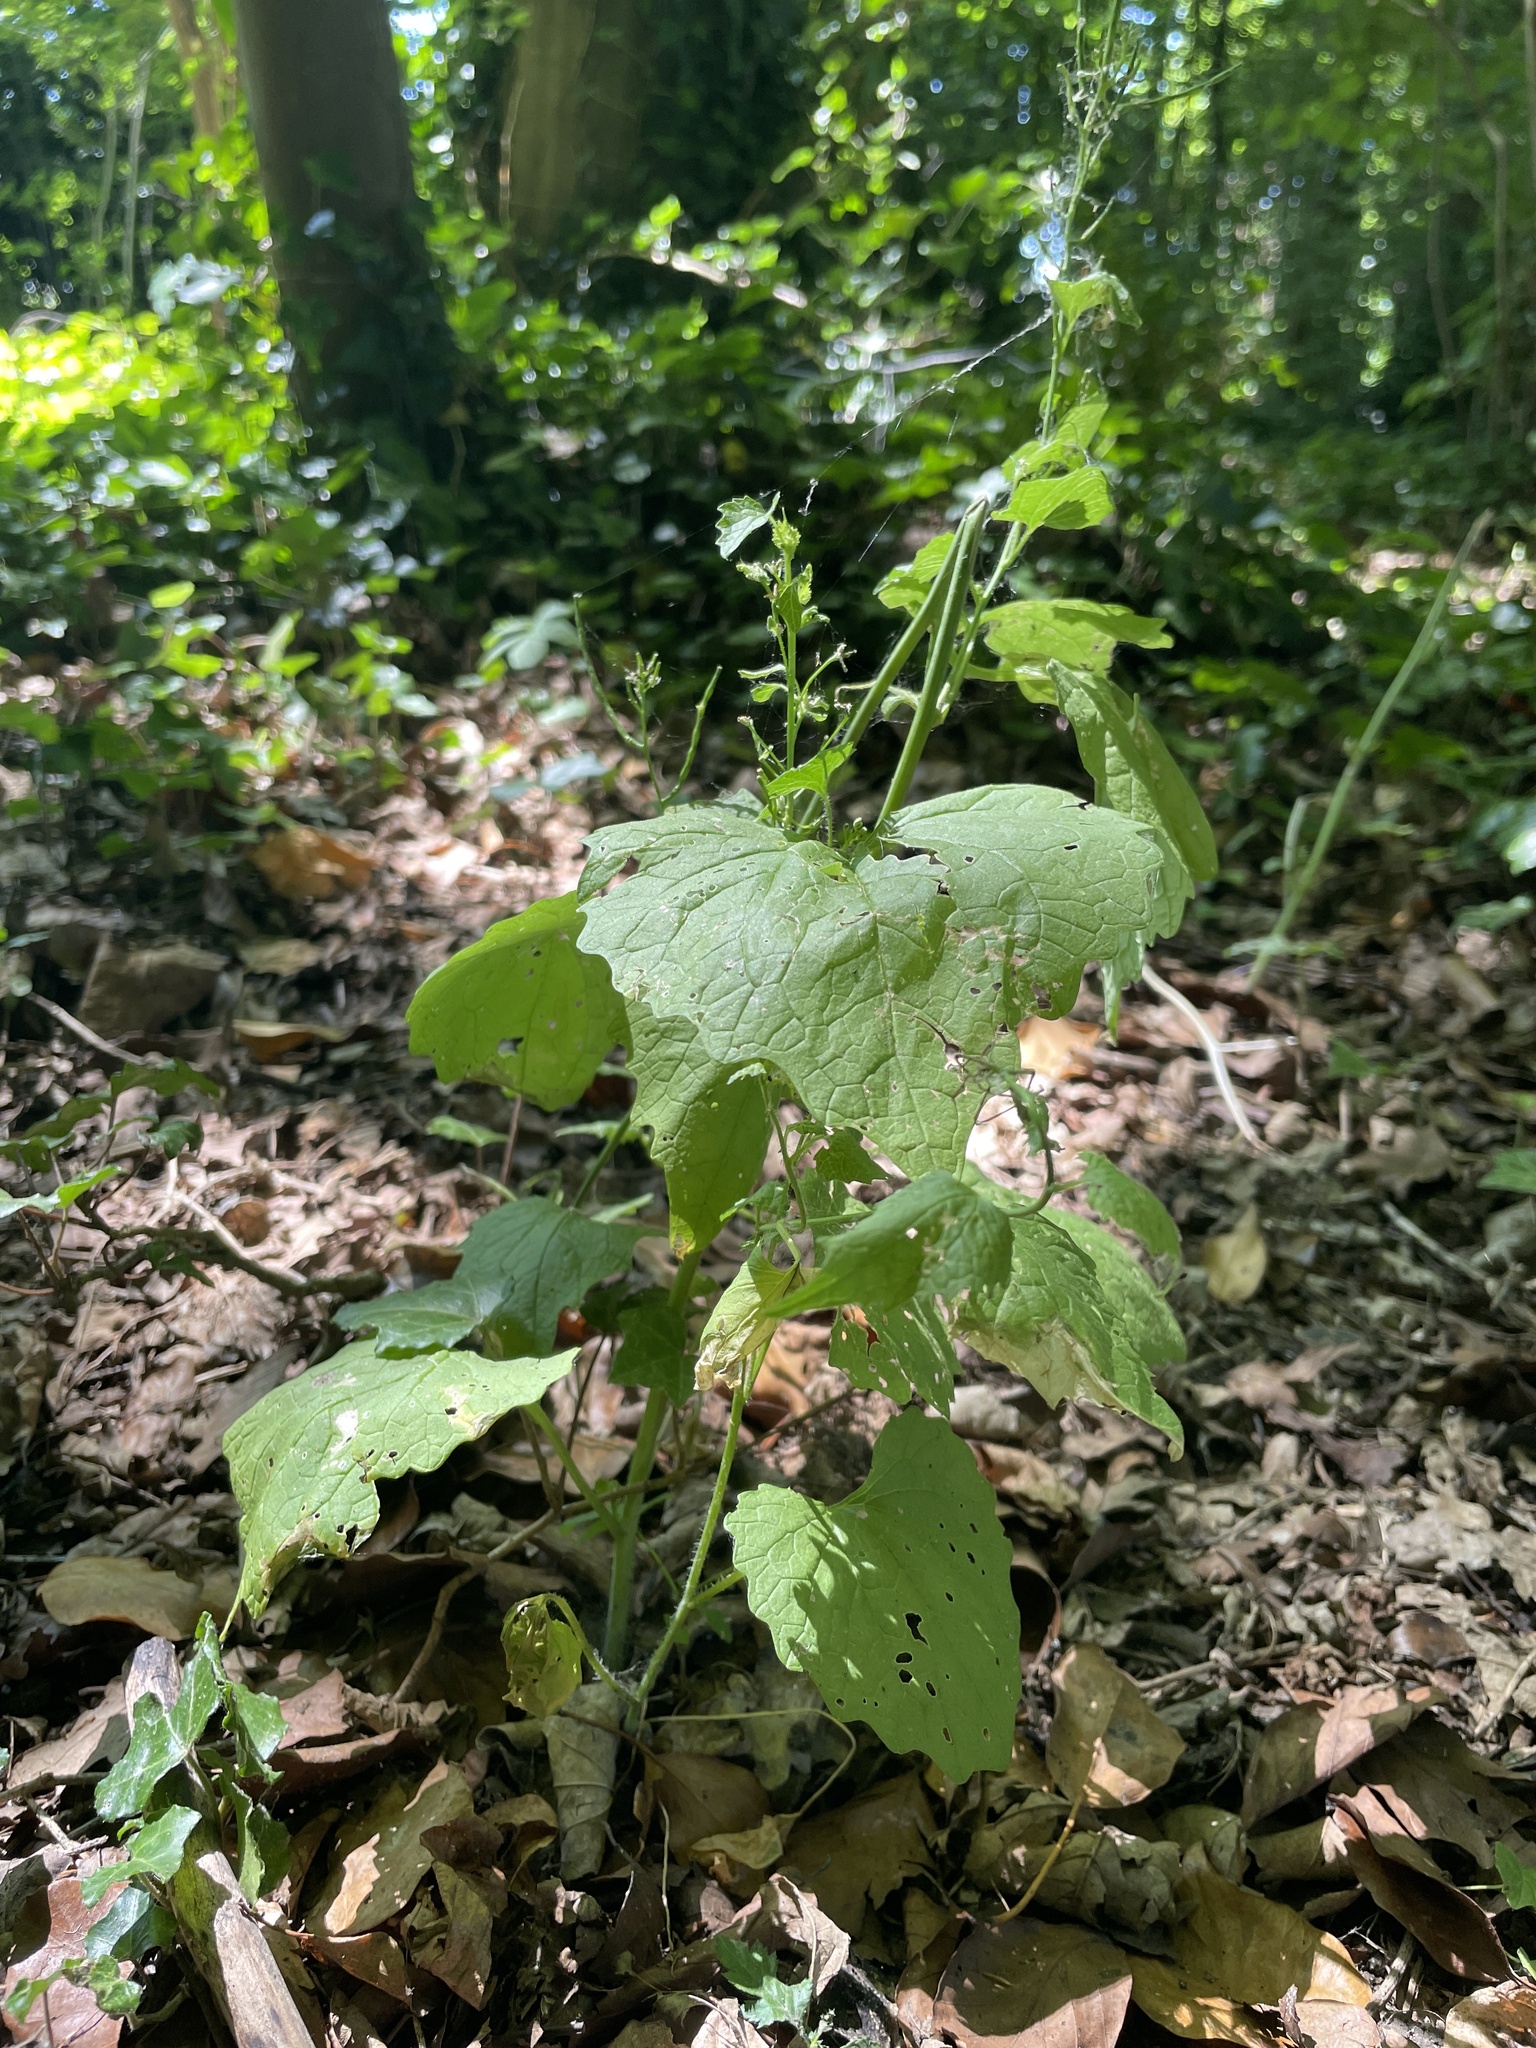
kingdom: Plantae
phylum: Tracheophyta
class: Magnoliopsida
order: Brassicales
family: Brassicaceae
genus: Alliaria
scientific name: Alliaria petiolata
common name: Garlic mustard
